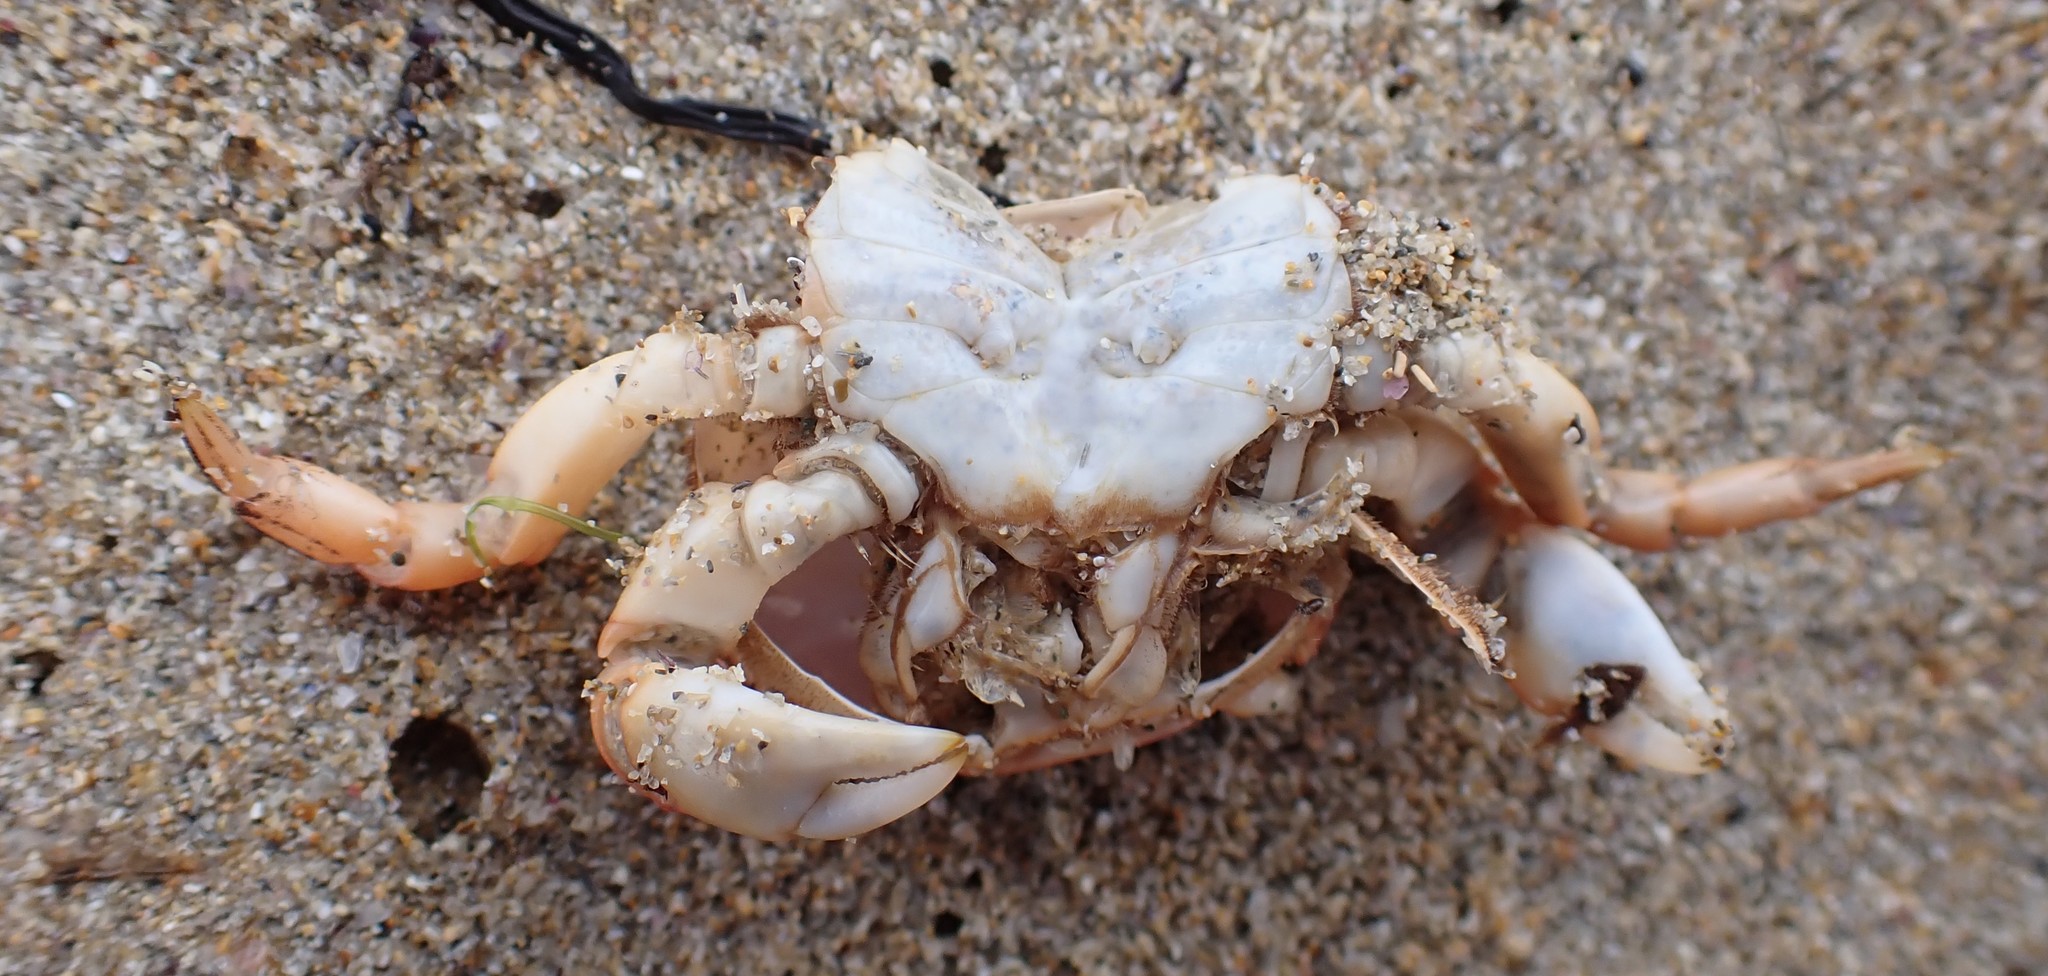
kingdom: Animalia
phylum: Arthropoda
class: Malacostraca
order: Decapoda
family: Varunidae
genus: Cyclograpsus
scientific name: Cyclograpsus granulosus
